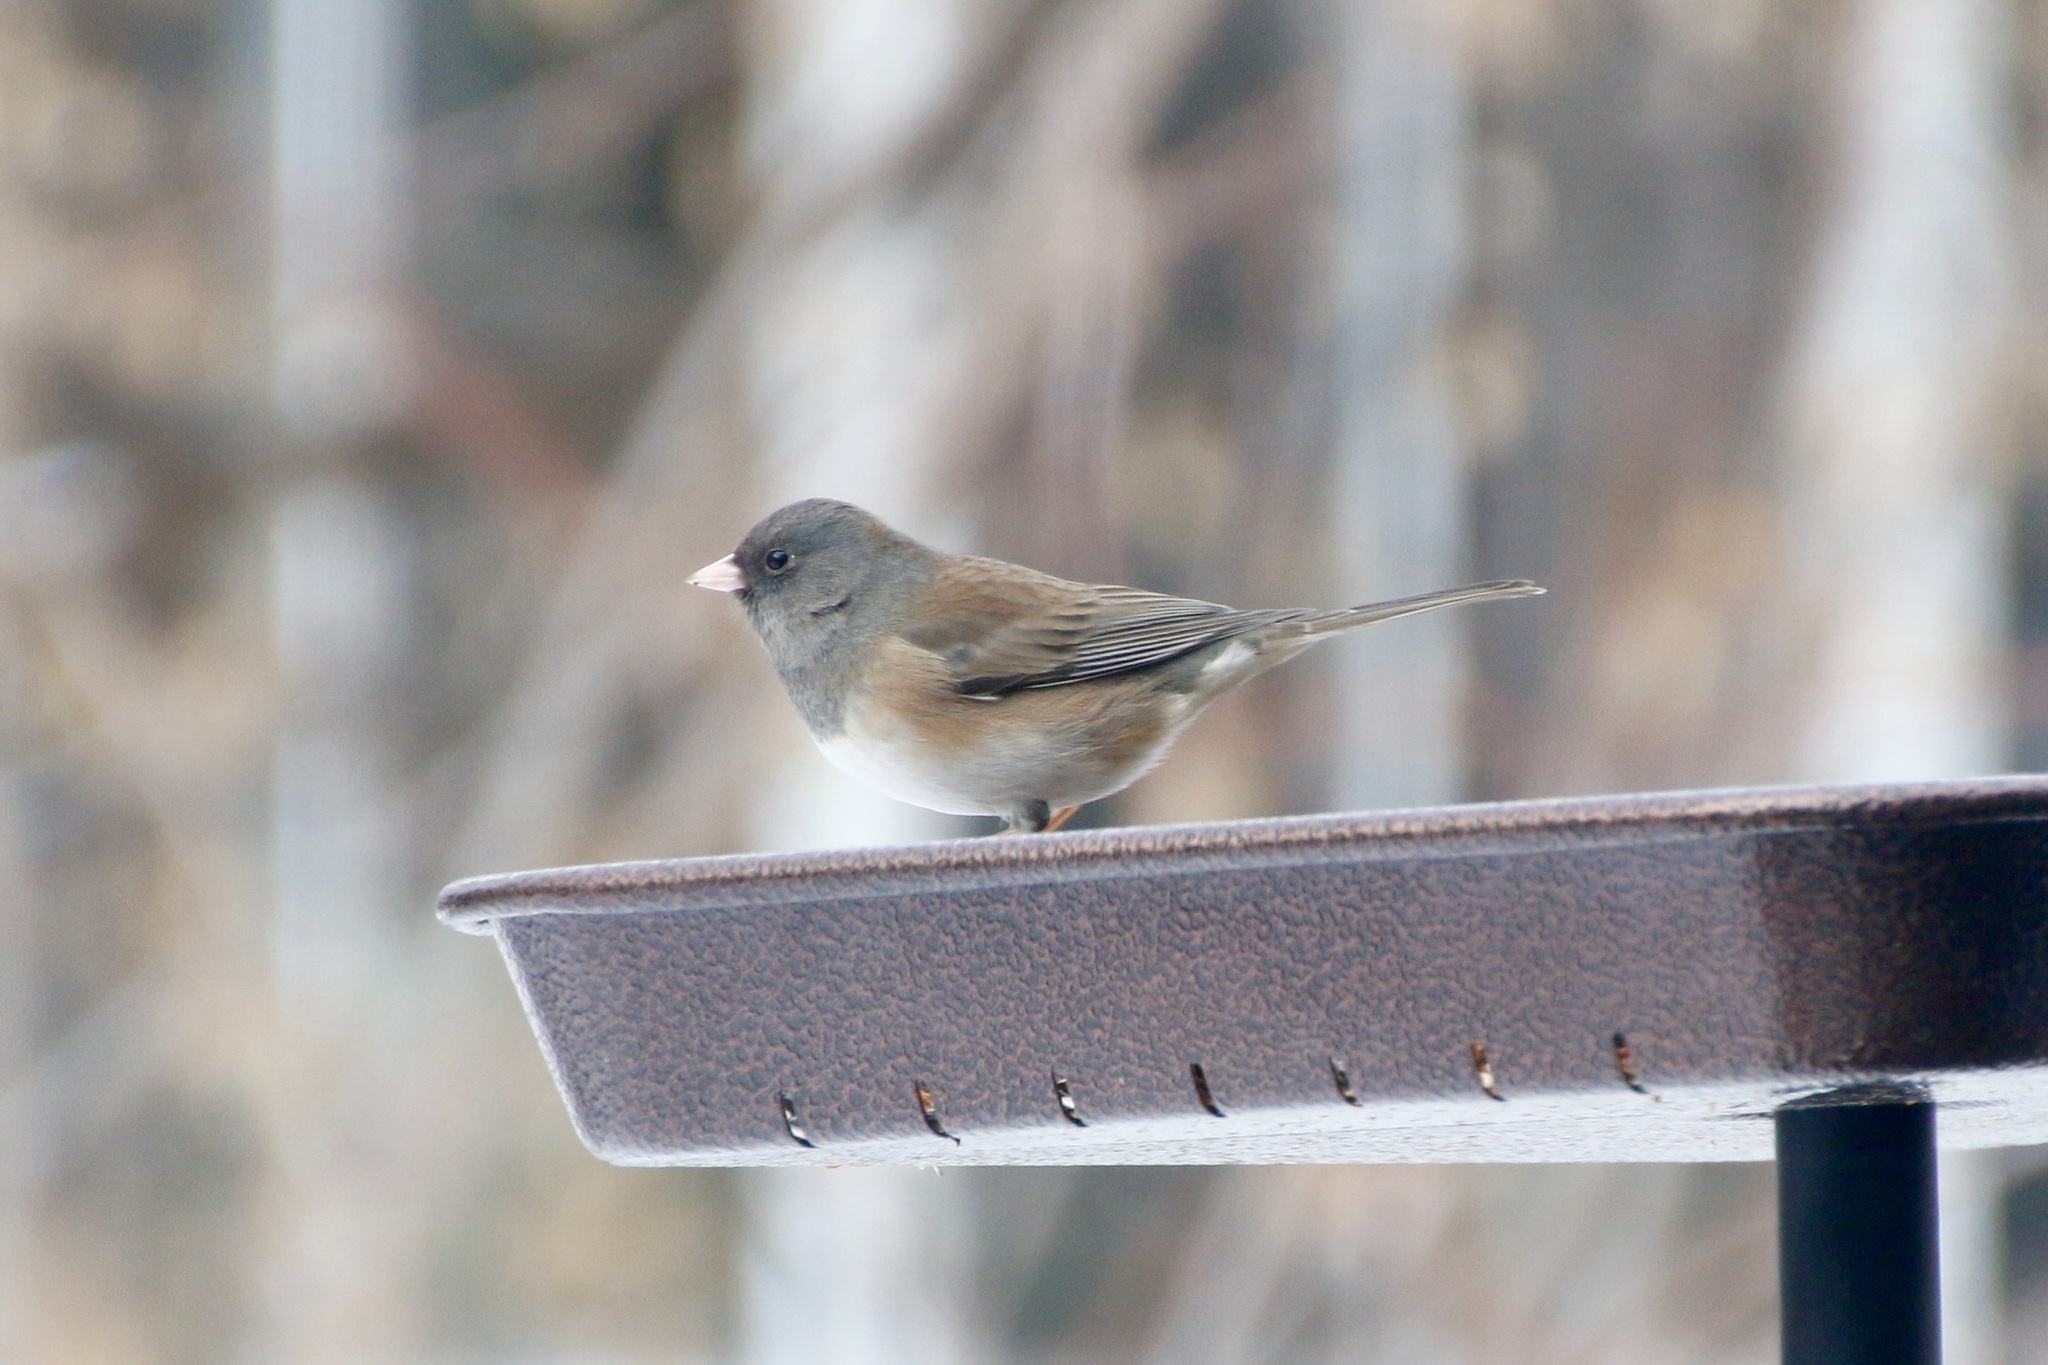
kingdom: Animalia
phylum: Chordata
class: Aves
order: Passeriformes
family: Passerellidae
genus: Junco
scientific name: Junco hyemalis
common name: Dark-eyed junco
